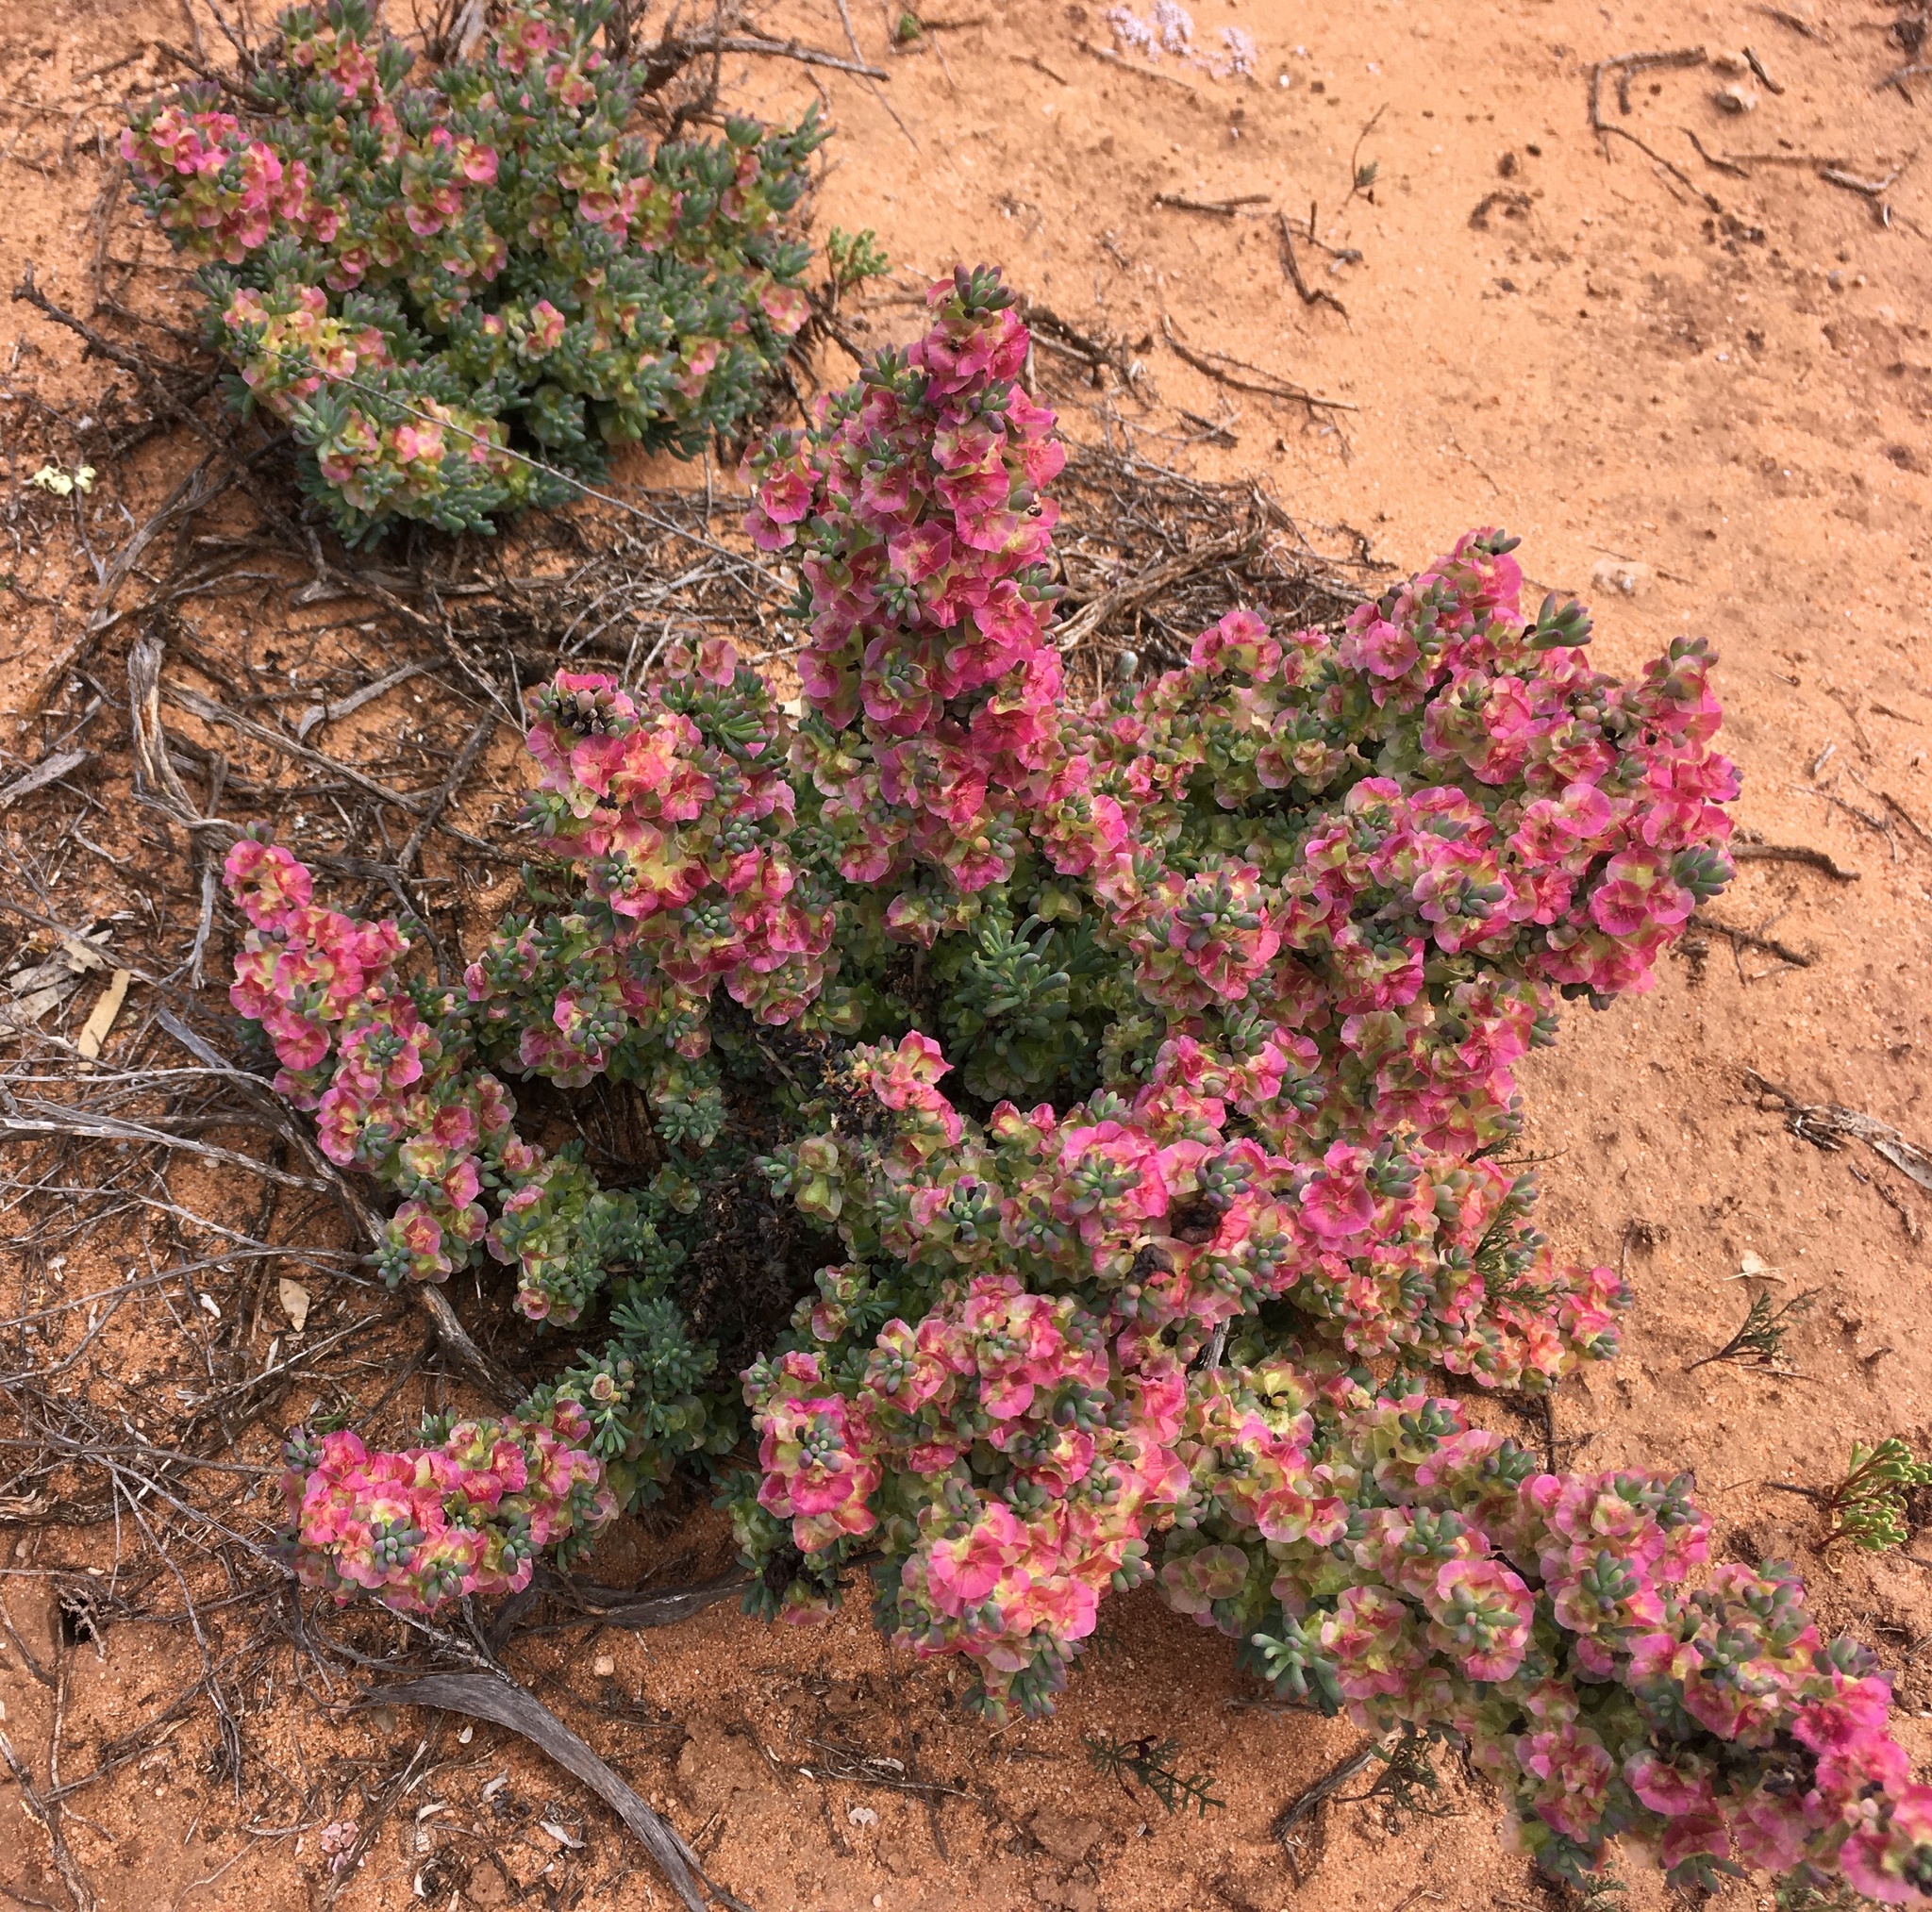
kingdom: Plantae
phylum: Tracheophyta
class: Magnoliopsida
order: Caryophyllales
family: Amaranthaceae
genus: Maireana
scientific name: Maireana erioclada
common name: Rosy bluebush
